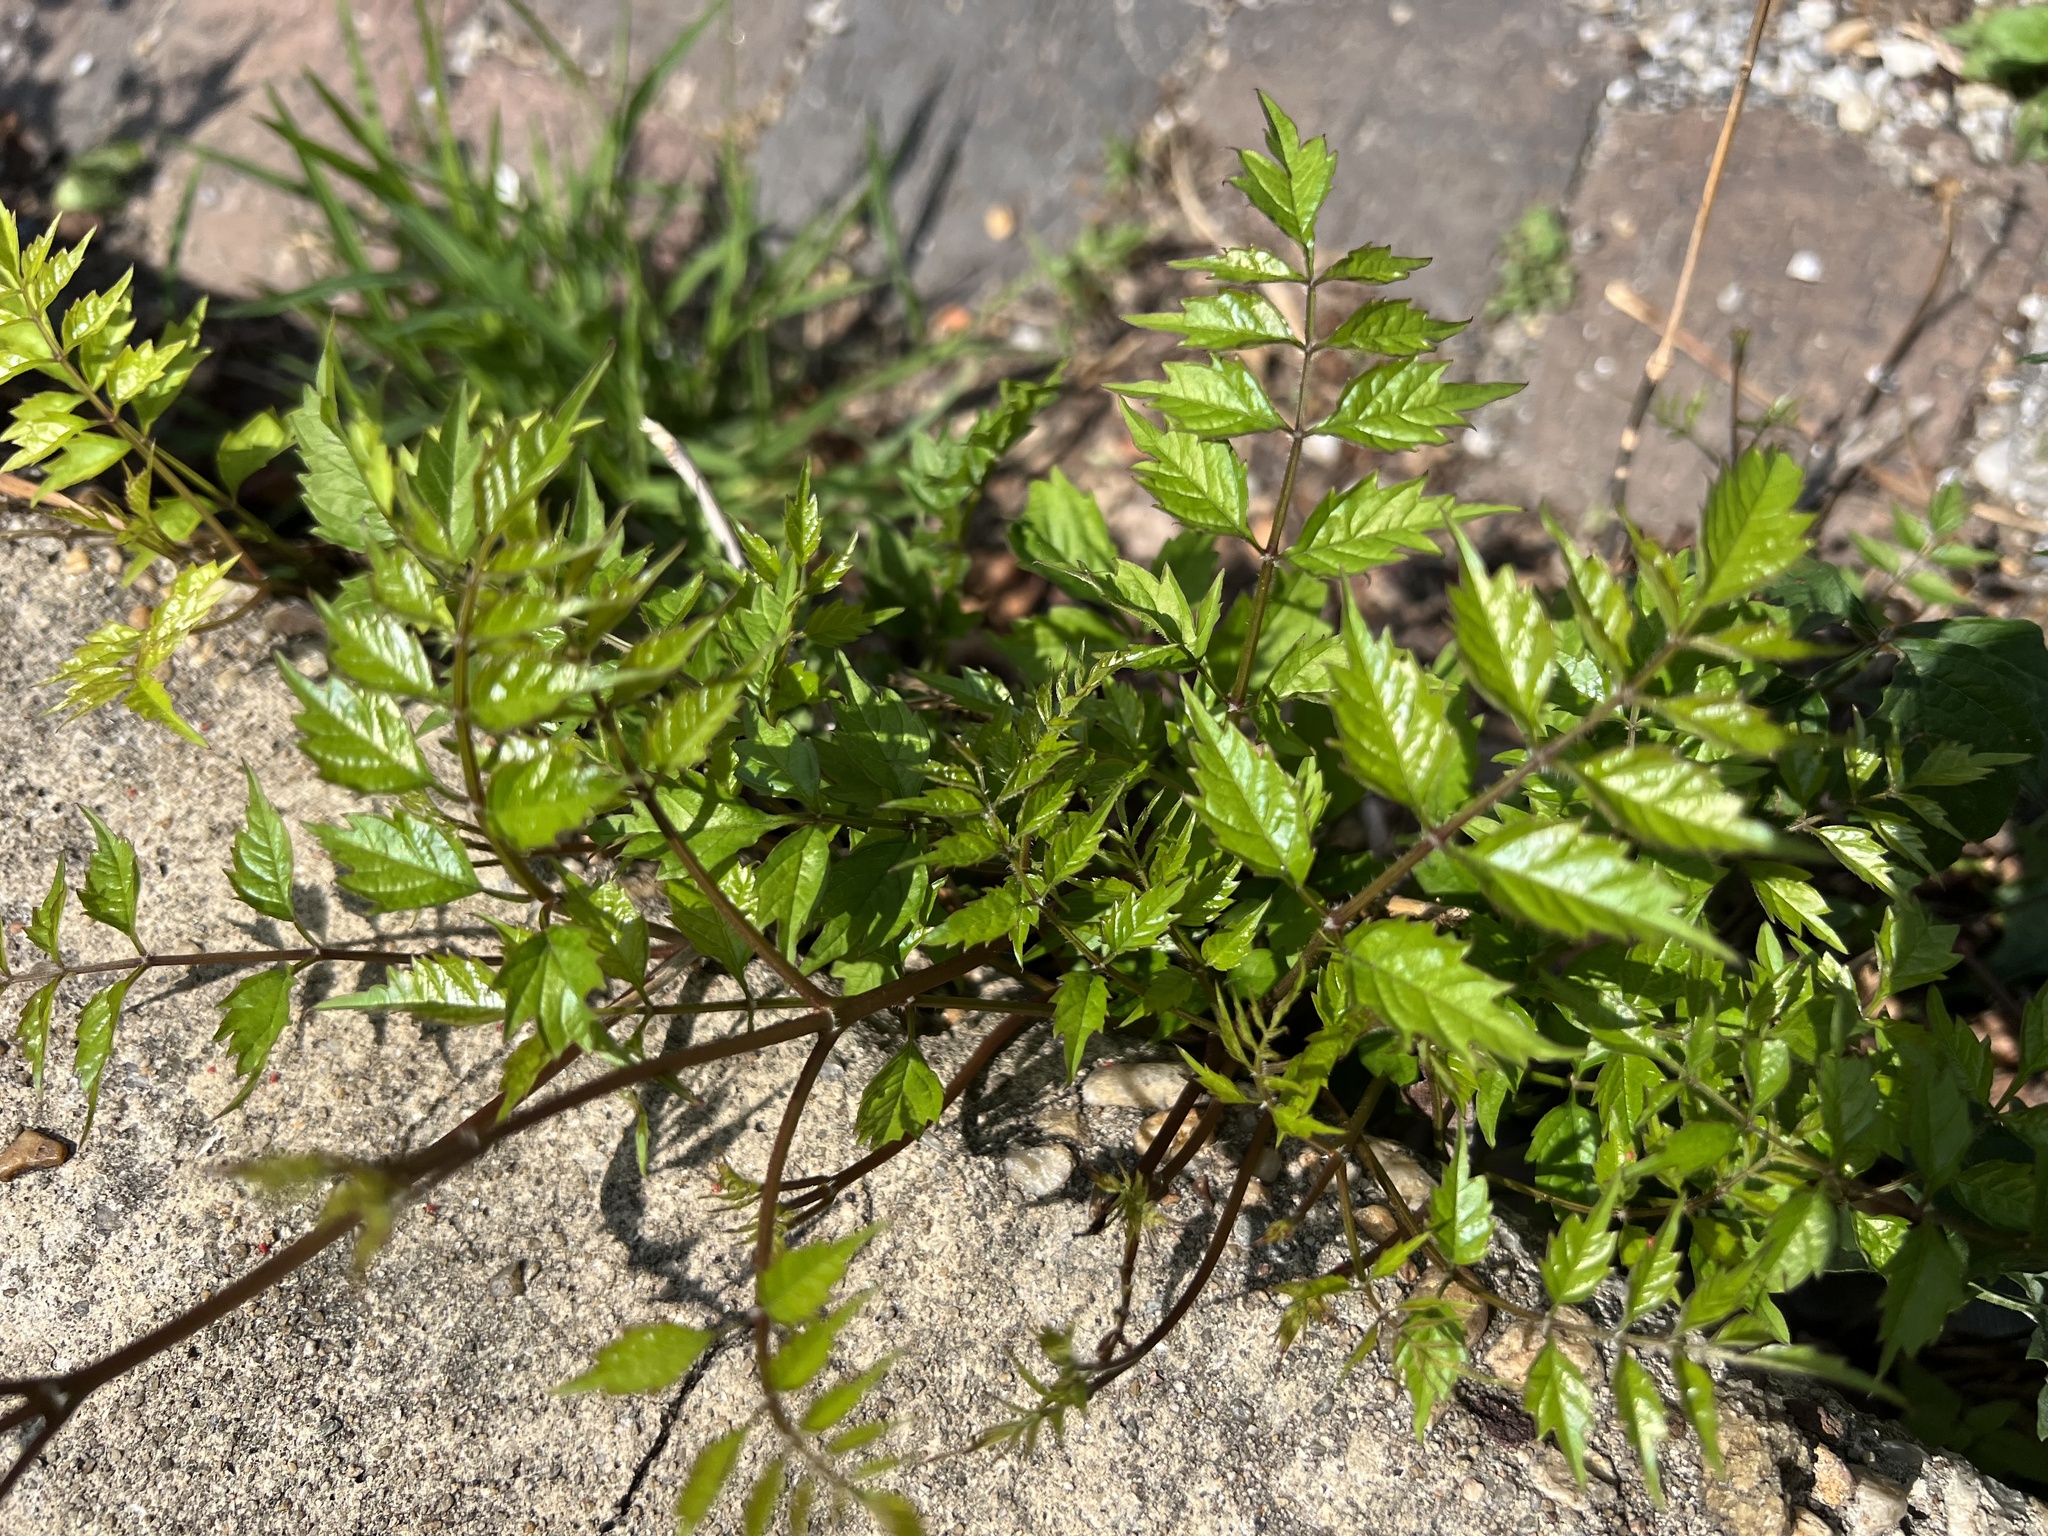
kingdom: Plantae
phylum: Tracheophyta
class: Magnoliopsida
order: Lamiales
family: Bignoniaceae
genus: Campsis
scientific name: Campsis radicans
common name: Trumpet-creeper
